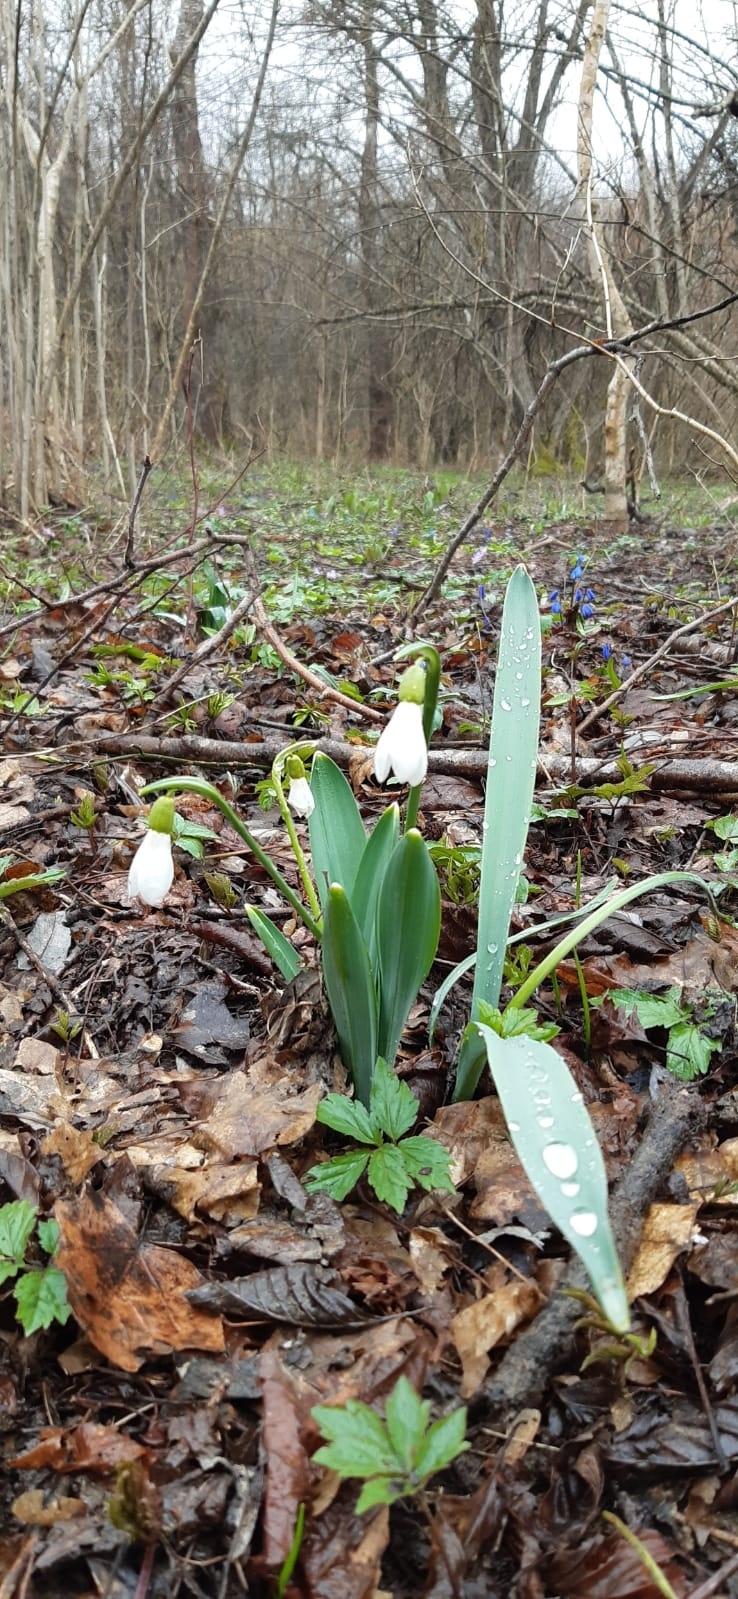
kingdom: Plantae
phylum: Tracheophyta
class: Liliopsida
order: Asparagales
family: Amaryllidaceae
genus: Galanthus
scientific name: Galanthus alpinus
